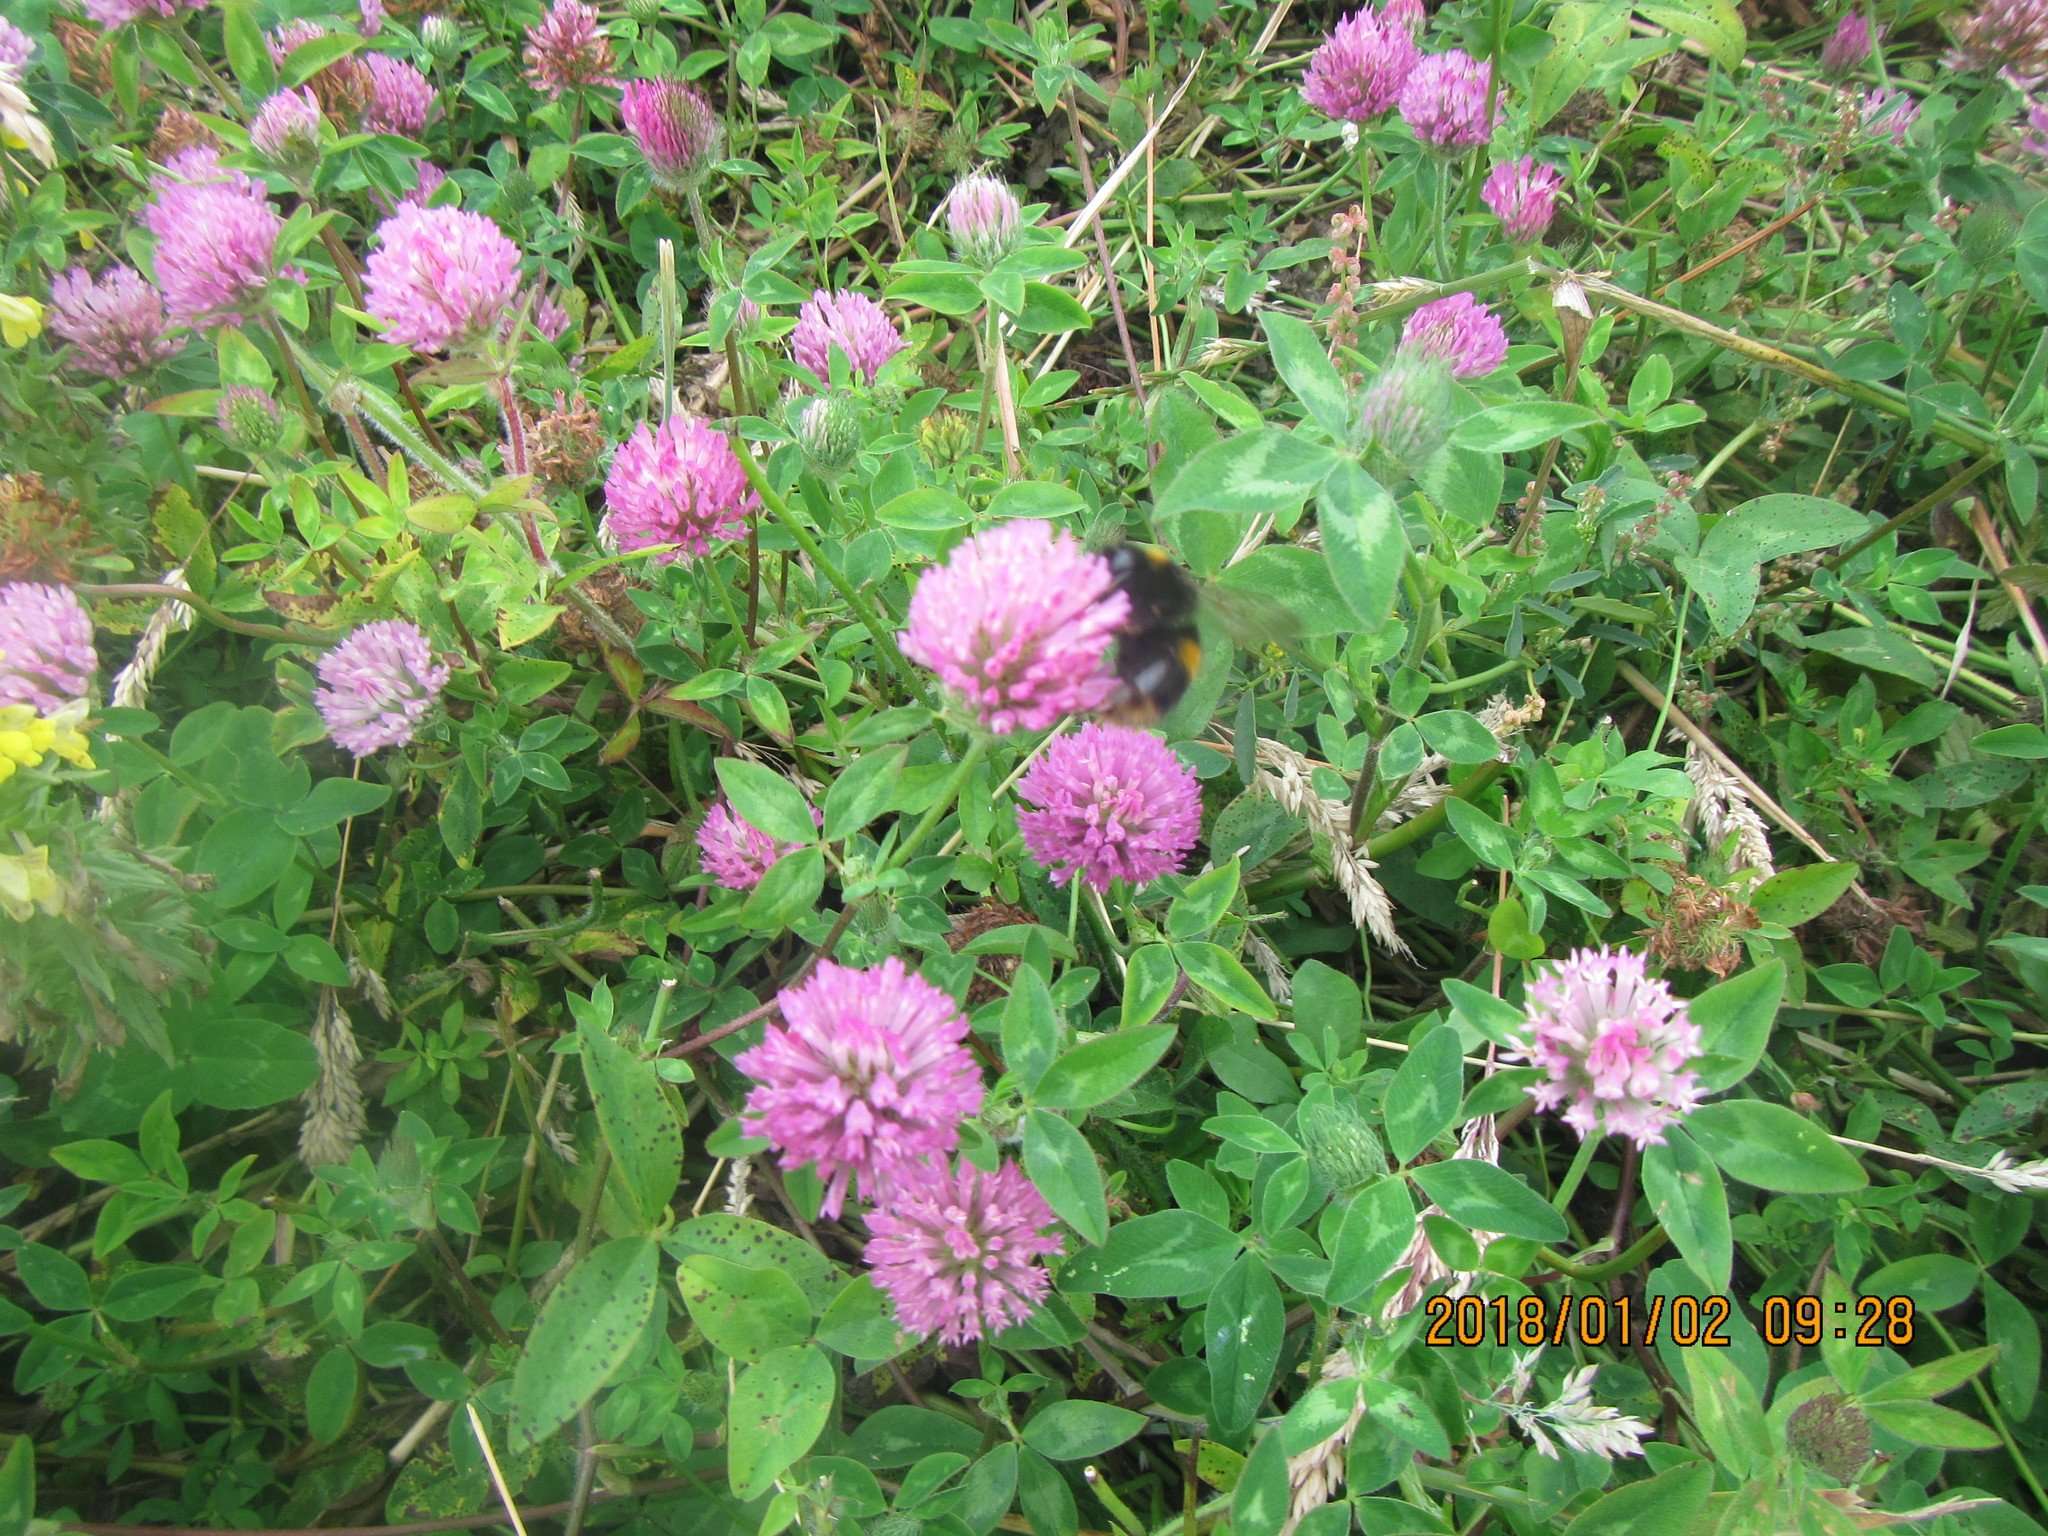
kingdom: Animalia
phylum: Arthropoda
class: Insecta
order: Hymenoptera
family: Apidae
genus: Bombus
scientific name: Bombus terrestris
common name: Buff-tailed bumblebee
